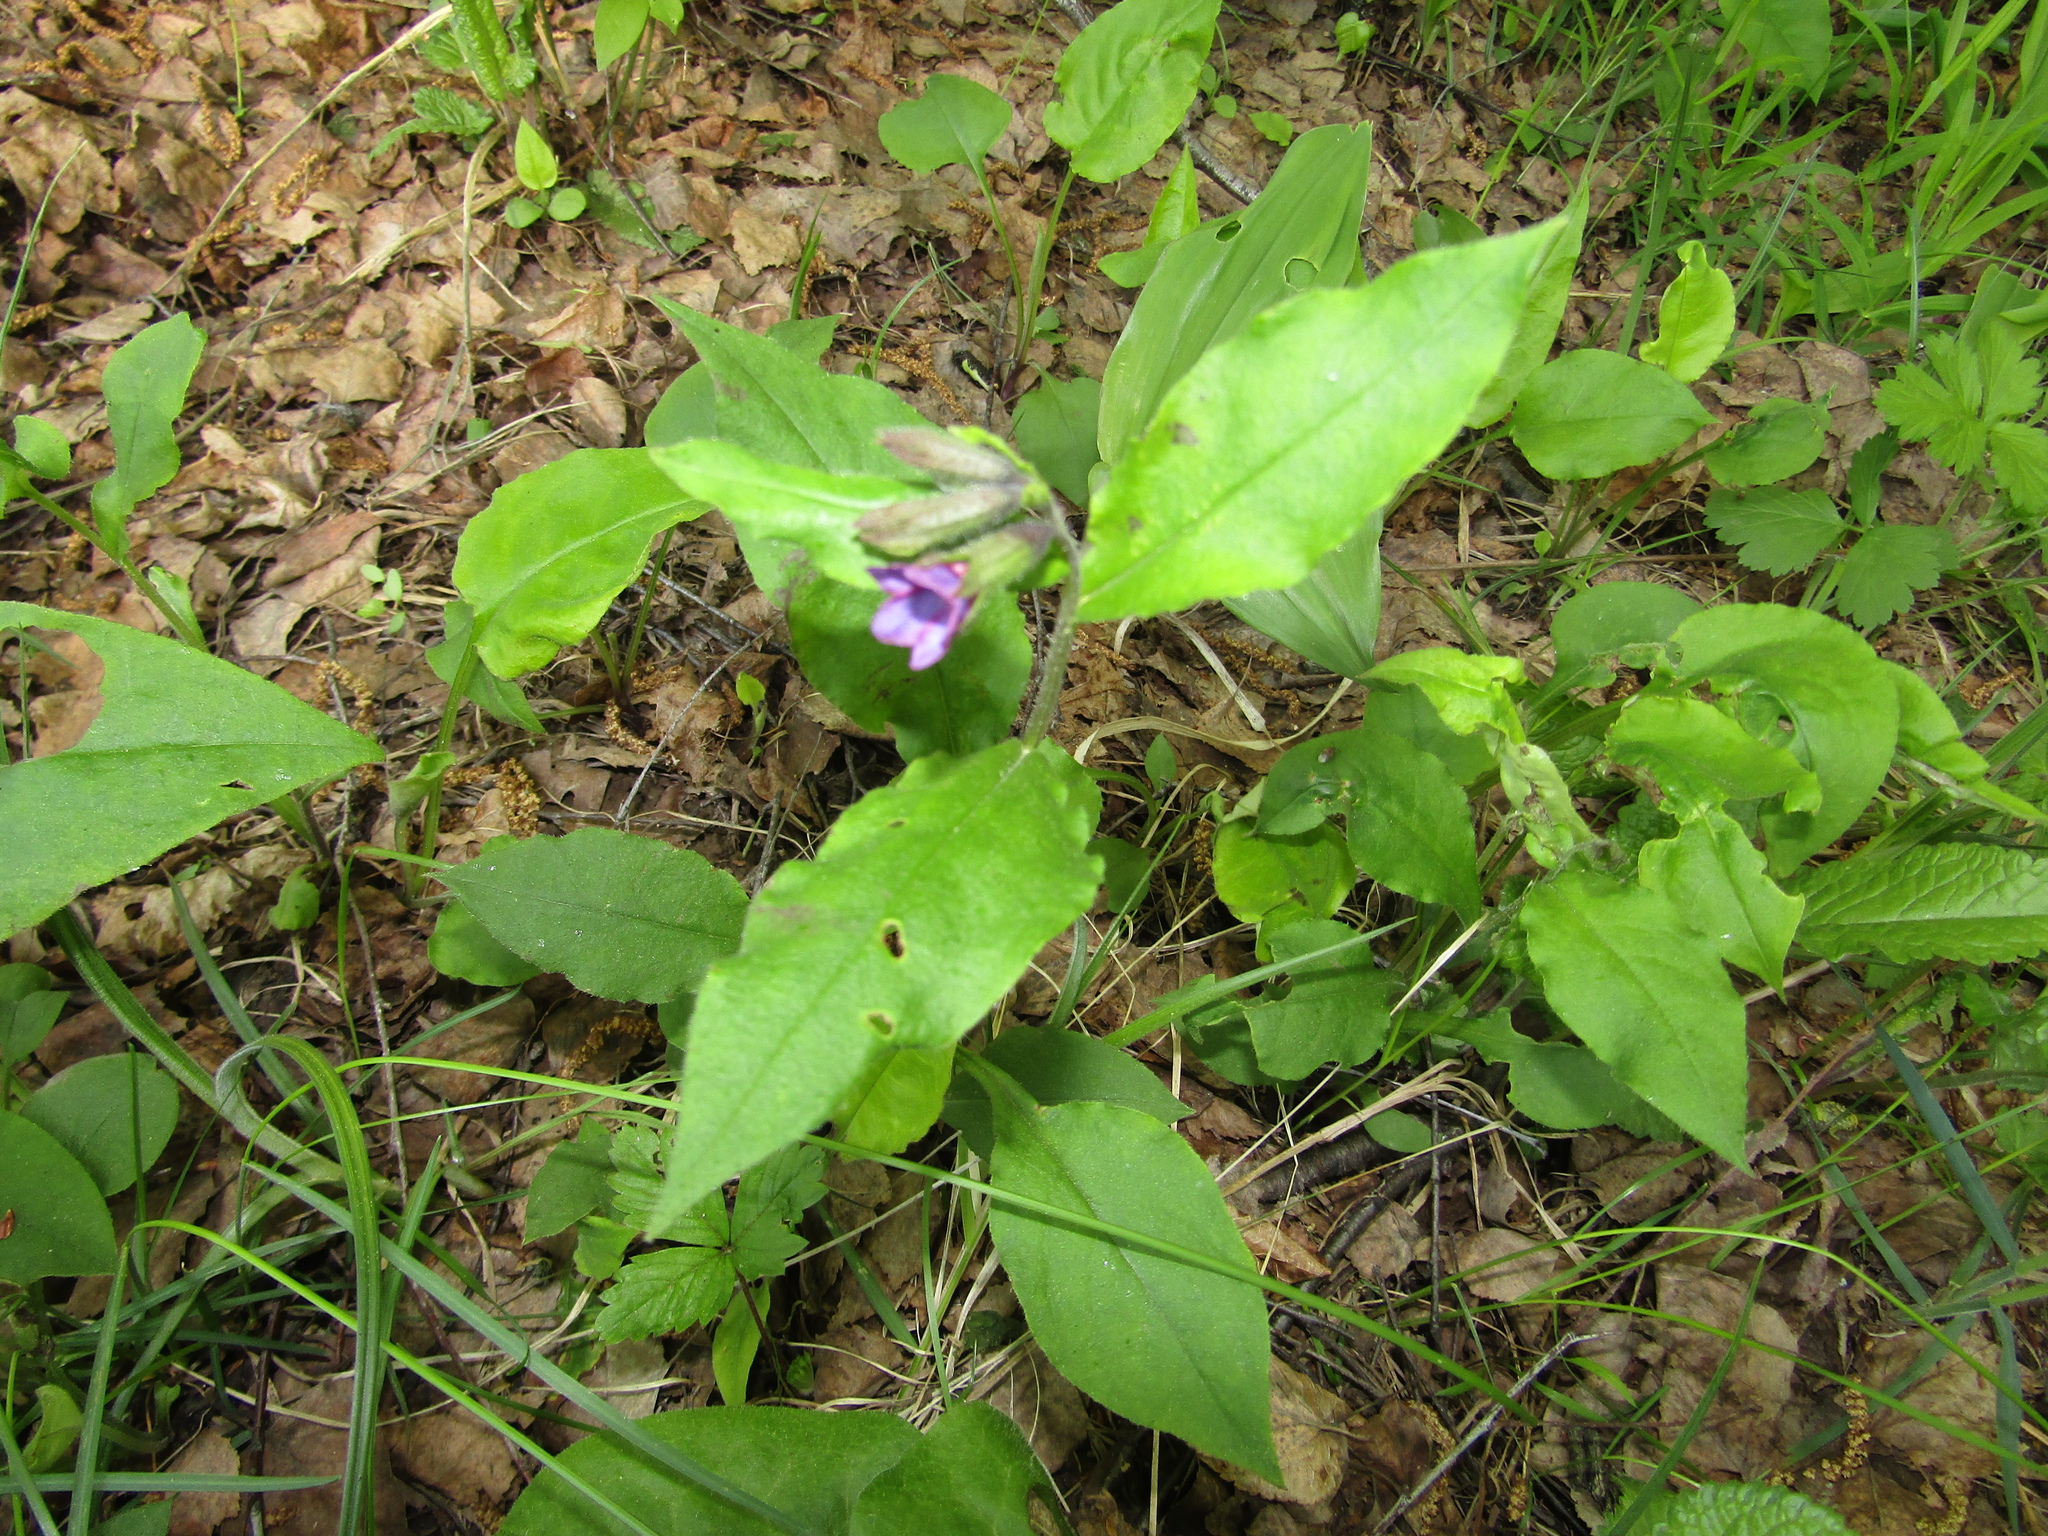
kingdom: Plantae
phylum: Tracheophyta
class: Magnoliopsida
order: Boraginales
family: Boraginaceae
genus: Pulmonaria
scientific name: Pulmonaria obscura
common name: Suffolk lungwort
